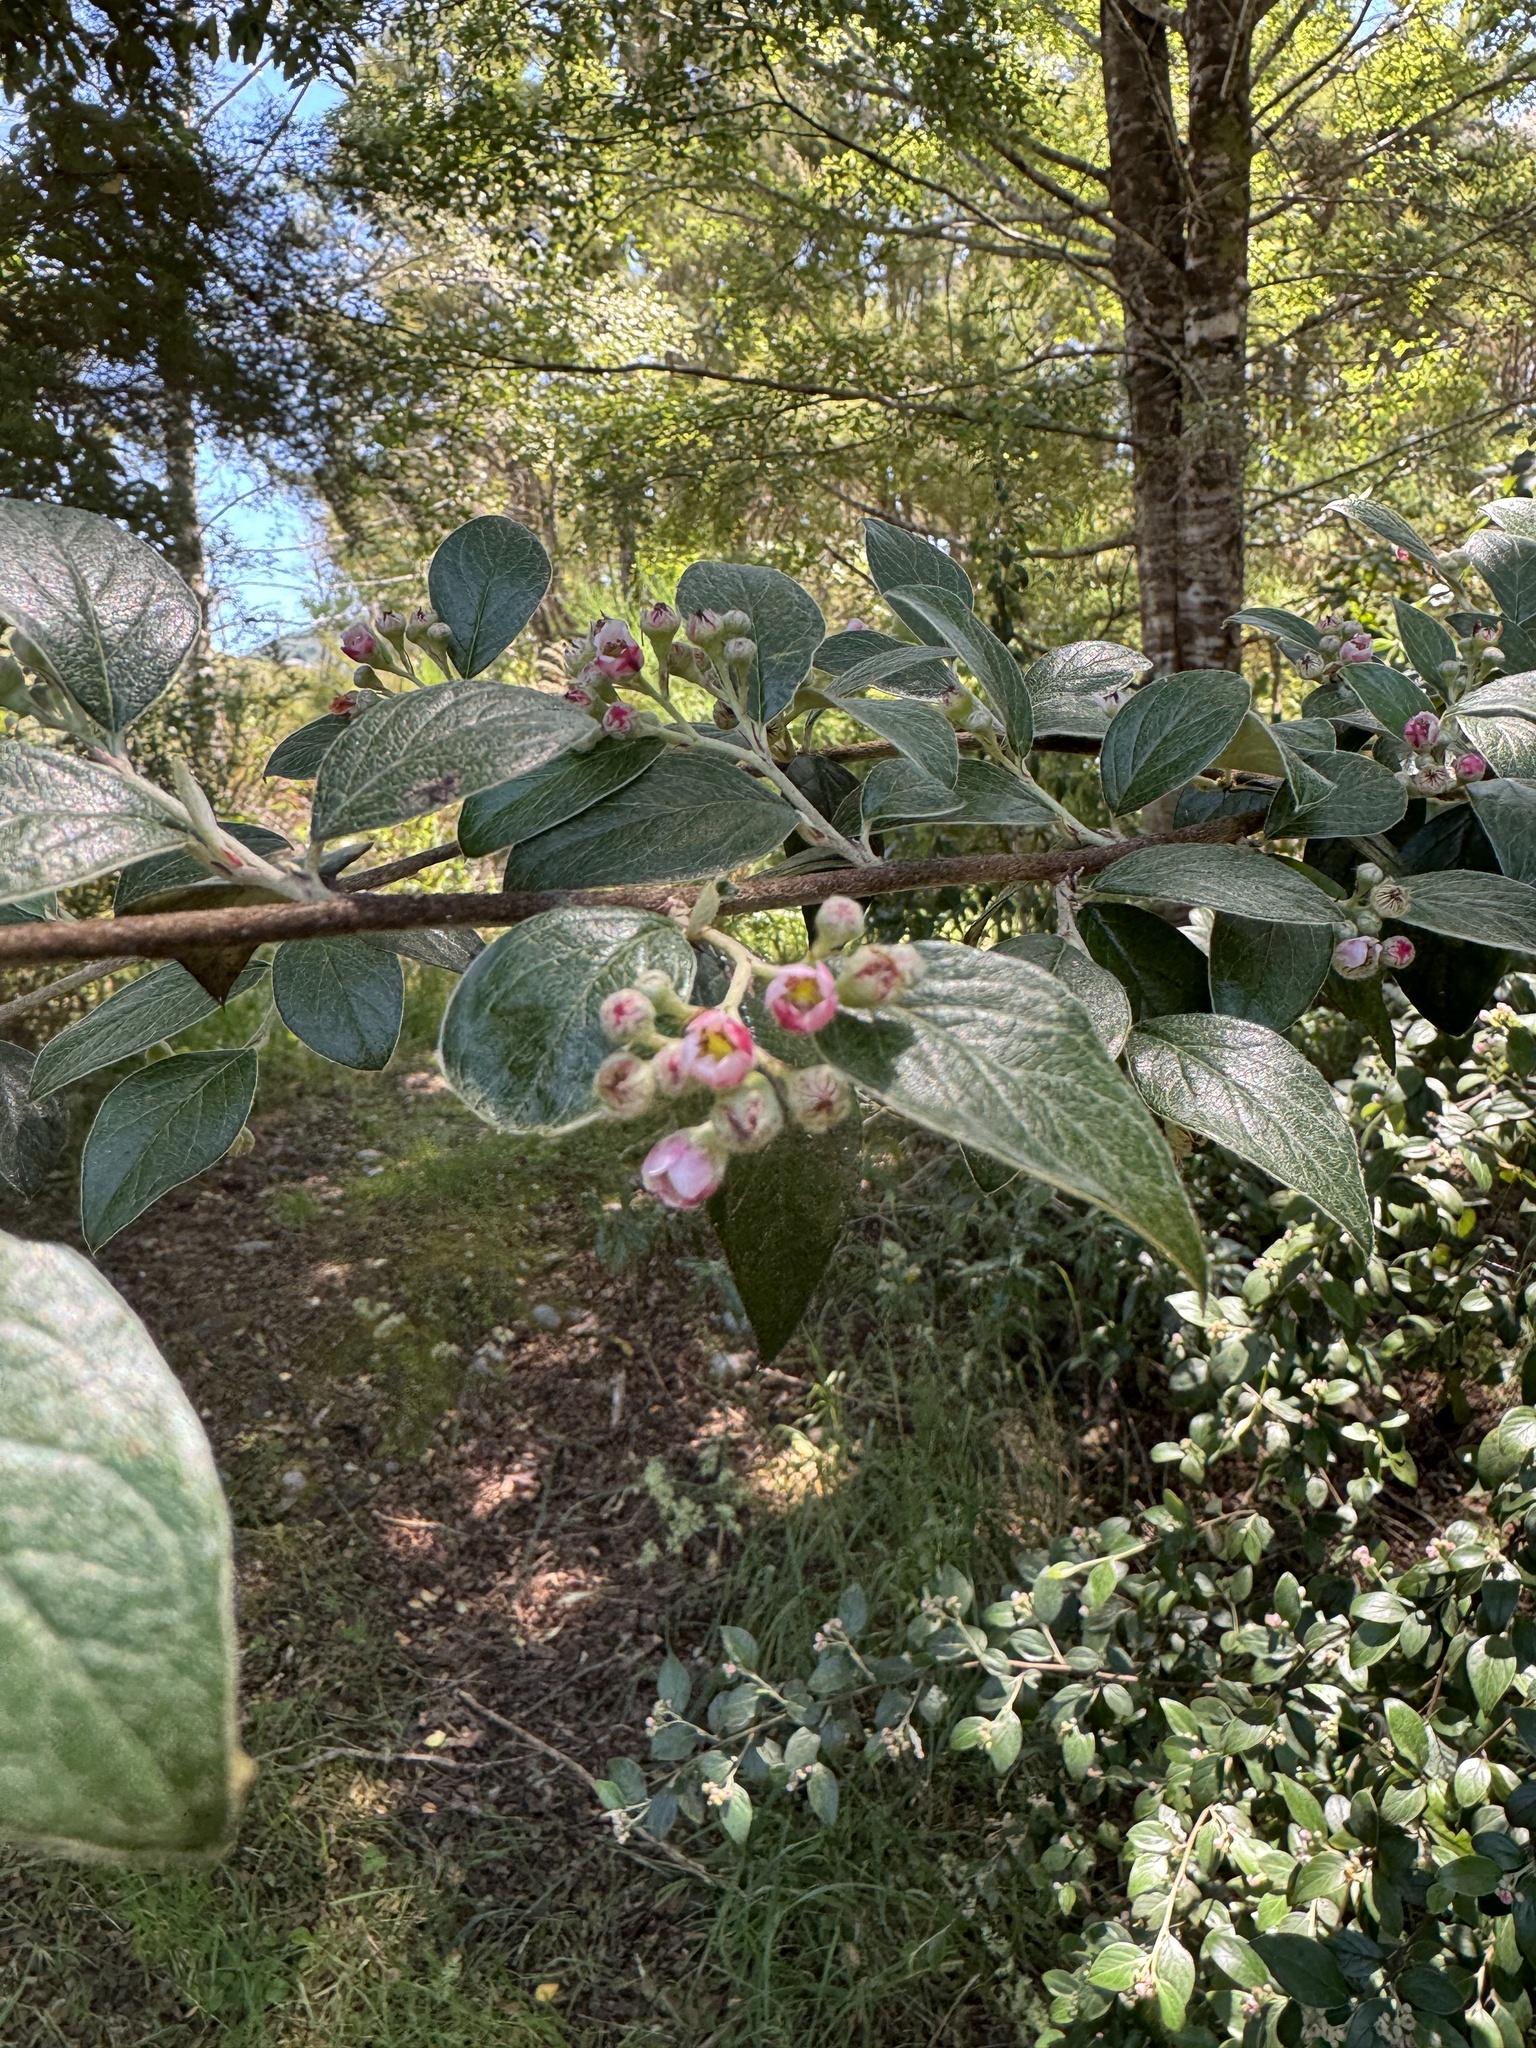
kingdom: Plantae
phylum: Tracheophyta
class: Magnoliopsida
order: Rosales
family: Rosaceae
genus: Cotoneaster
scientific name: Cotoneaster franchetii
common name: Franchet's cotoneaster
